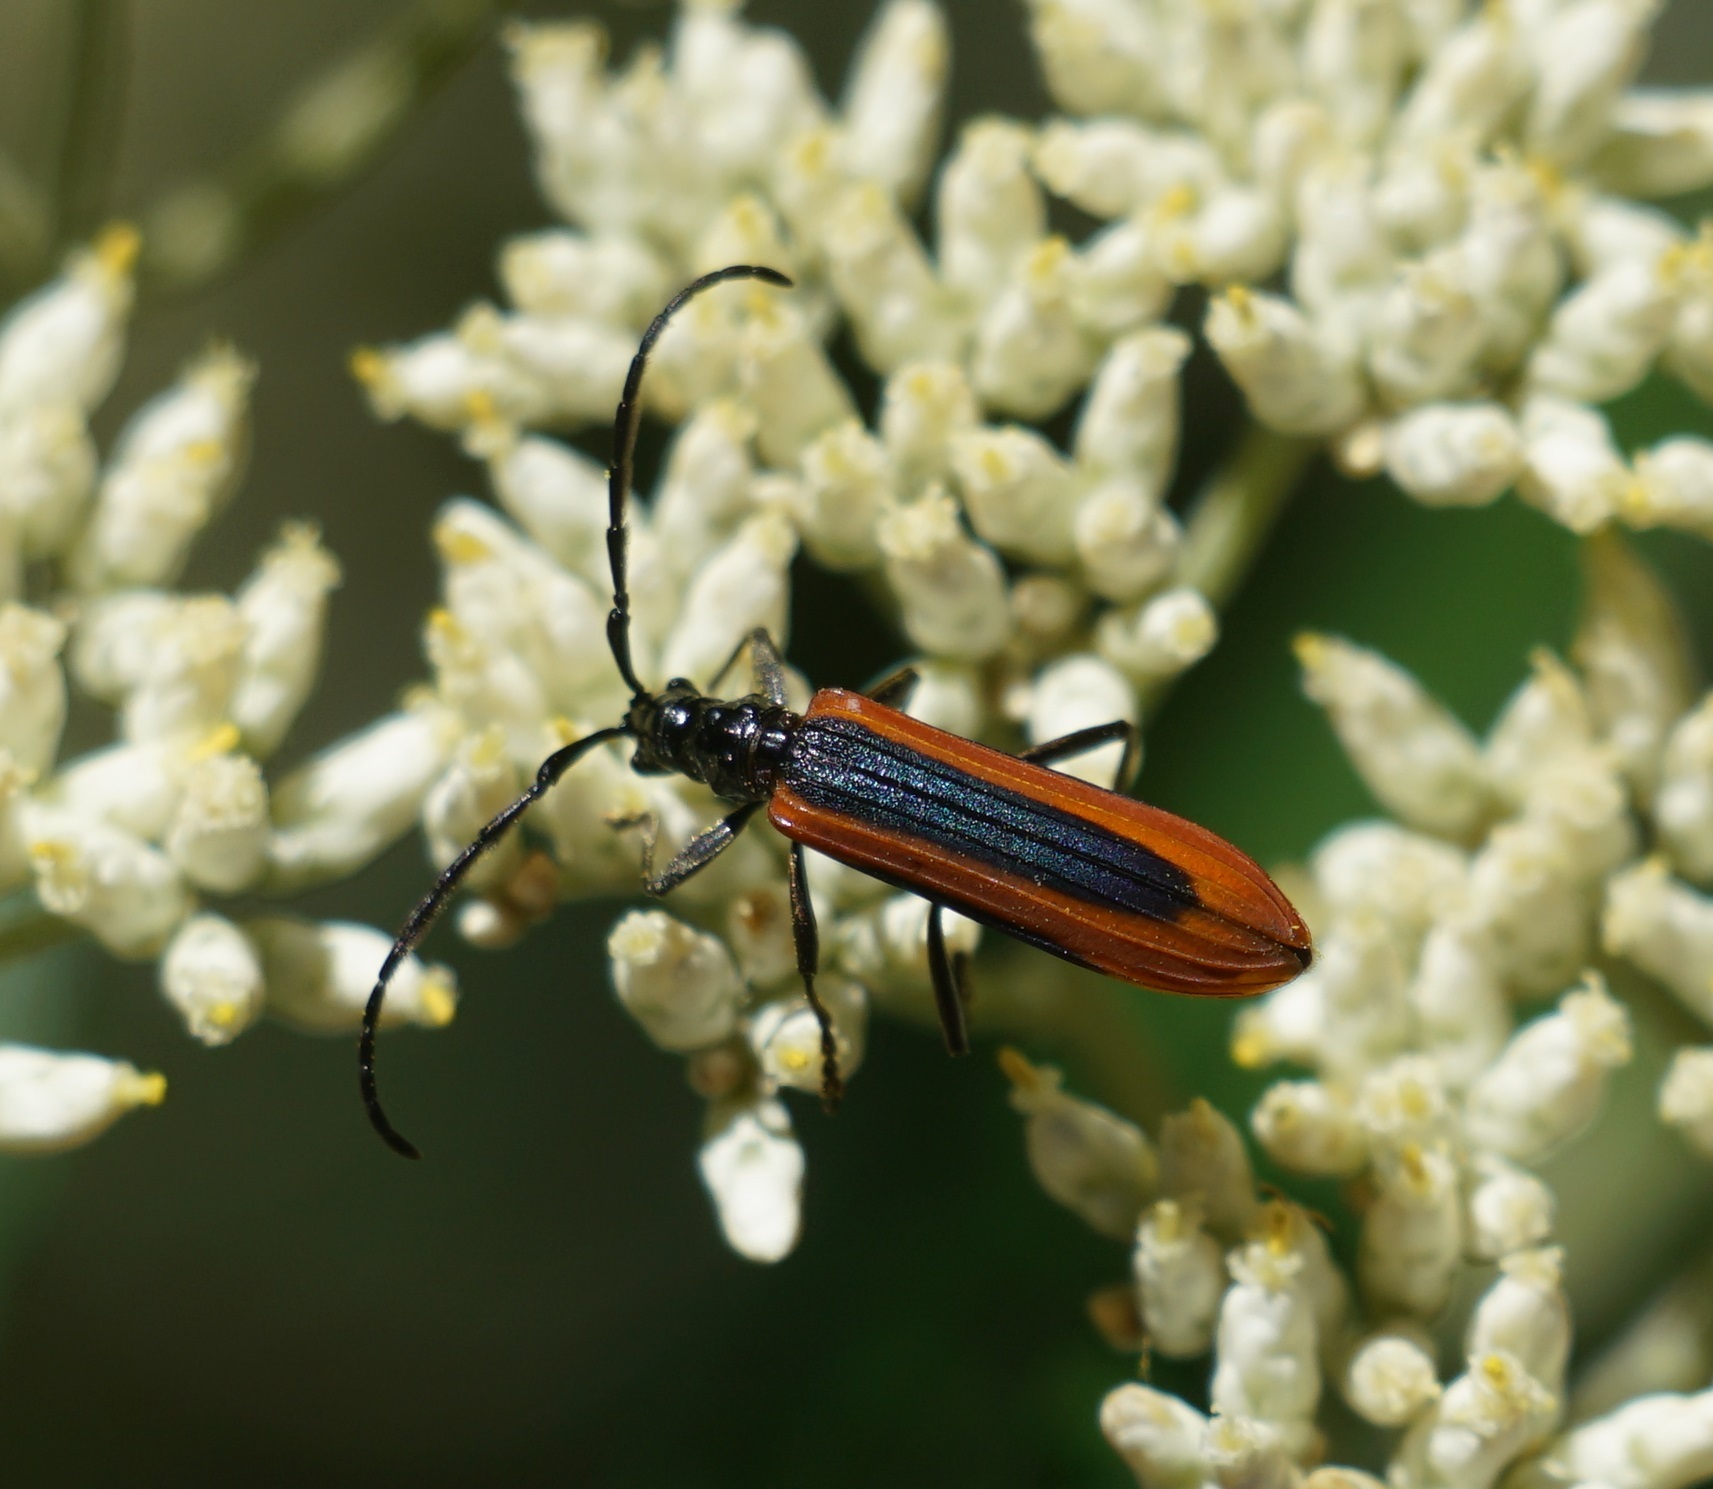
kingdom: Animalia
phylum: Arthropoda
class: Insecta
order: Coleoptera
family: Cerambycidae
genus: Stenoderus
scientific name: Stenoderus suturalis
